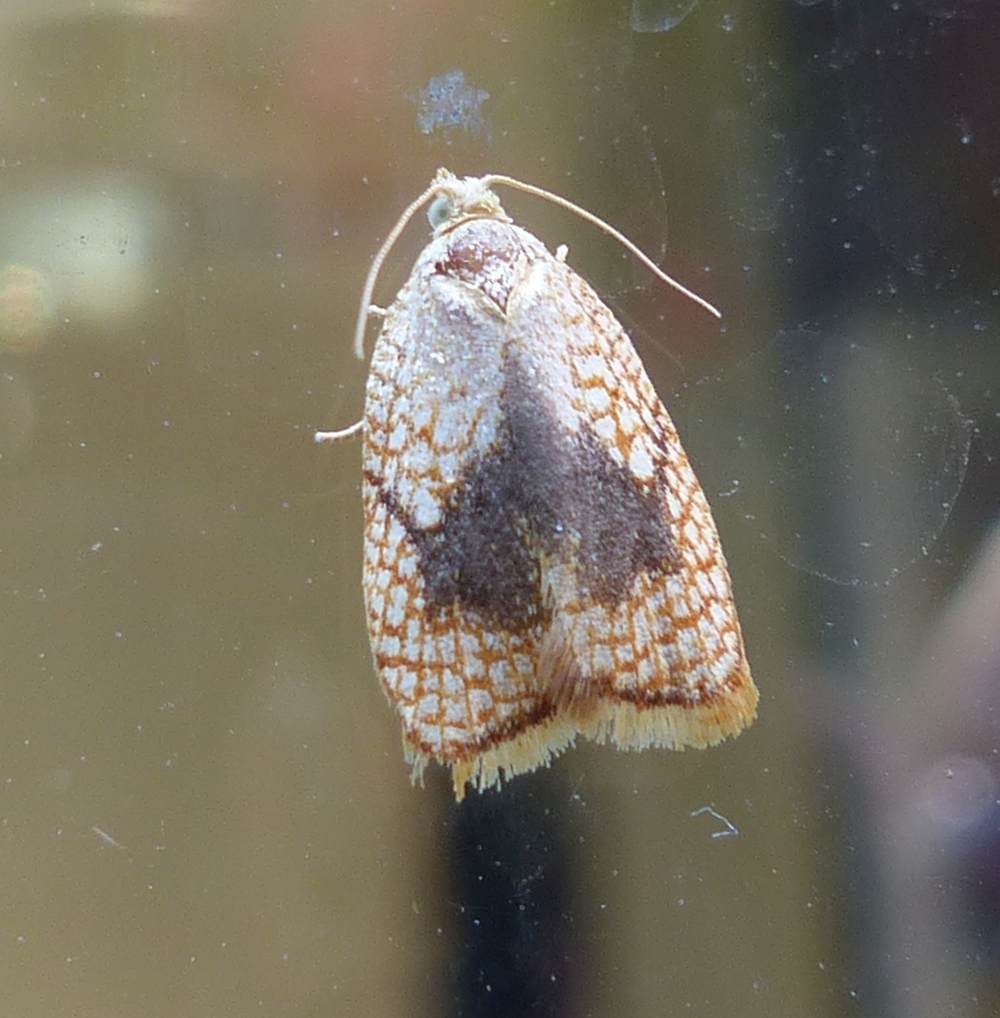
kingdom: Animalia
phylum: Arthropoda
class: Insecta
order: Lepidoptera
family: Tortricidae
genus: Acleris
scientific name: Acleris forsskaleana
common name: Maple button
